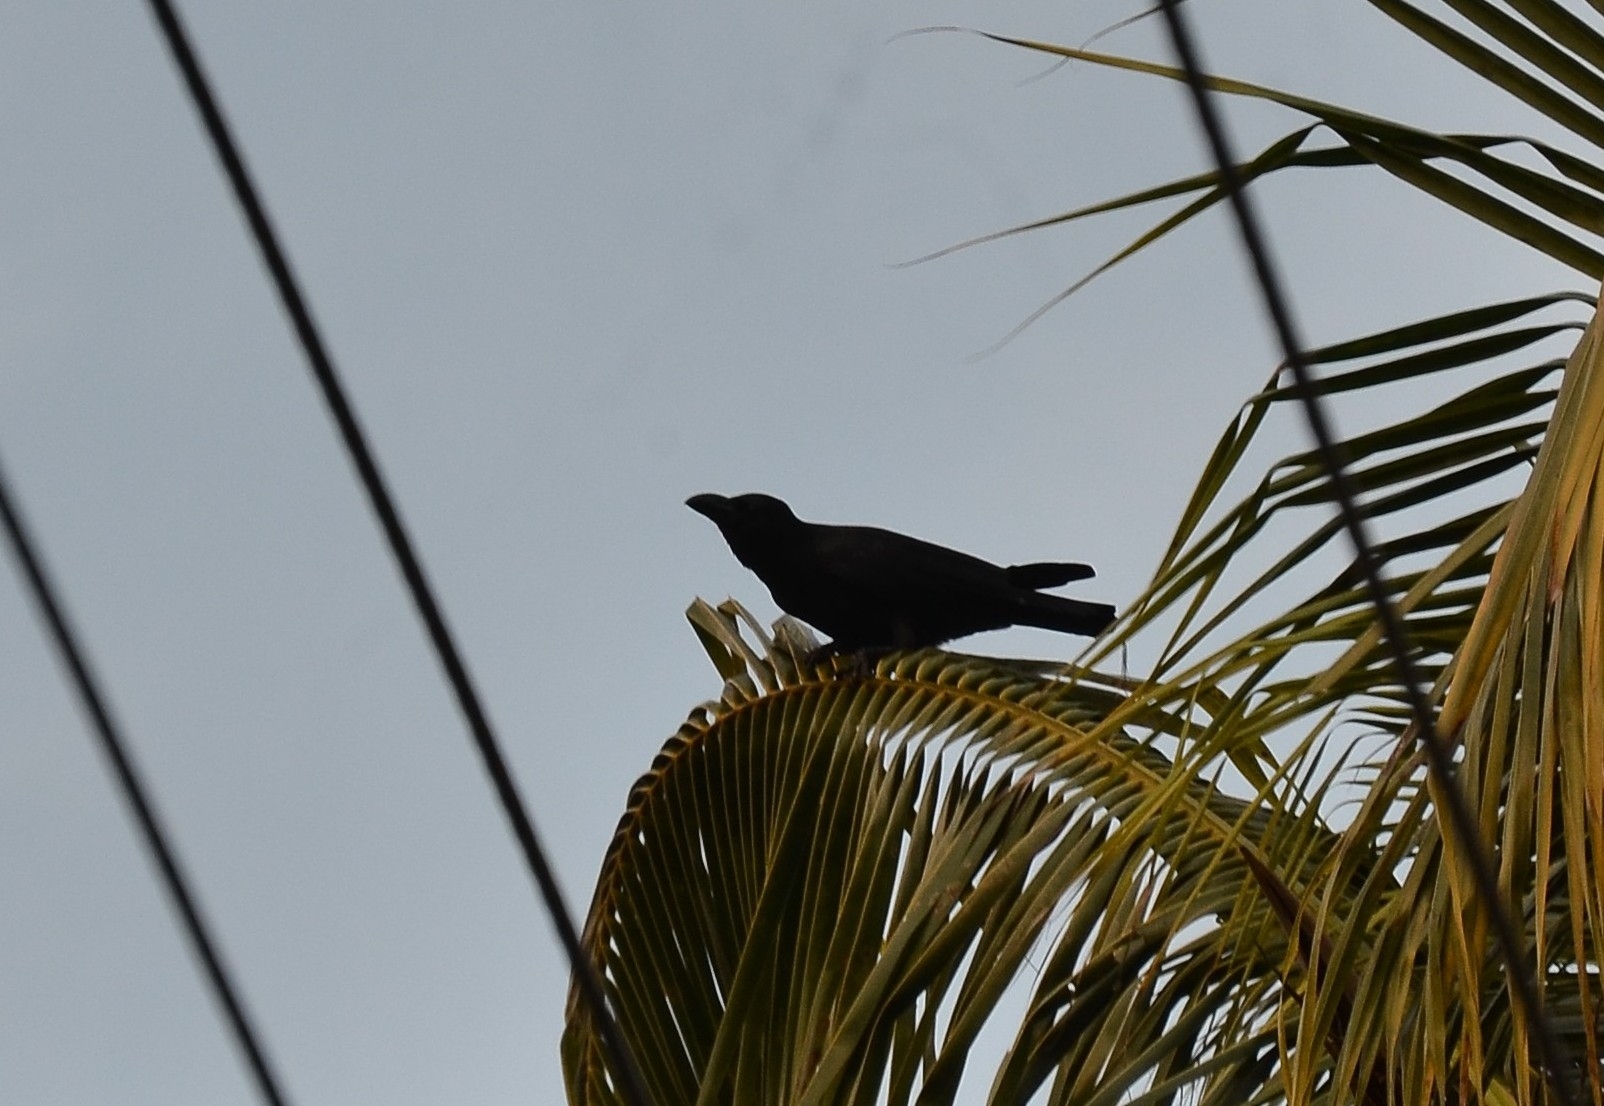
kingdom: Animalia
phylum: Chordata
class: Aves
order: Passeriformes
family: Corvidae
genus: Corvus
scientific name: Corvus macrorhynchos
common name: Large-billed crow
